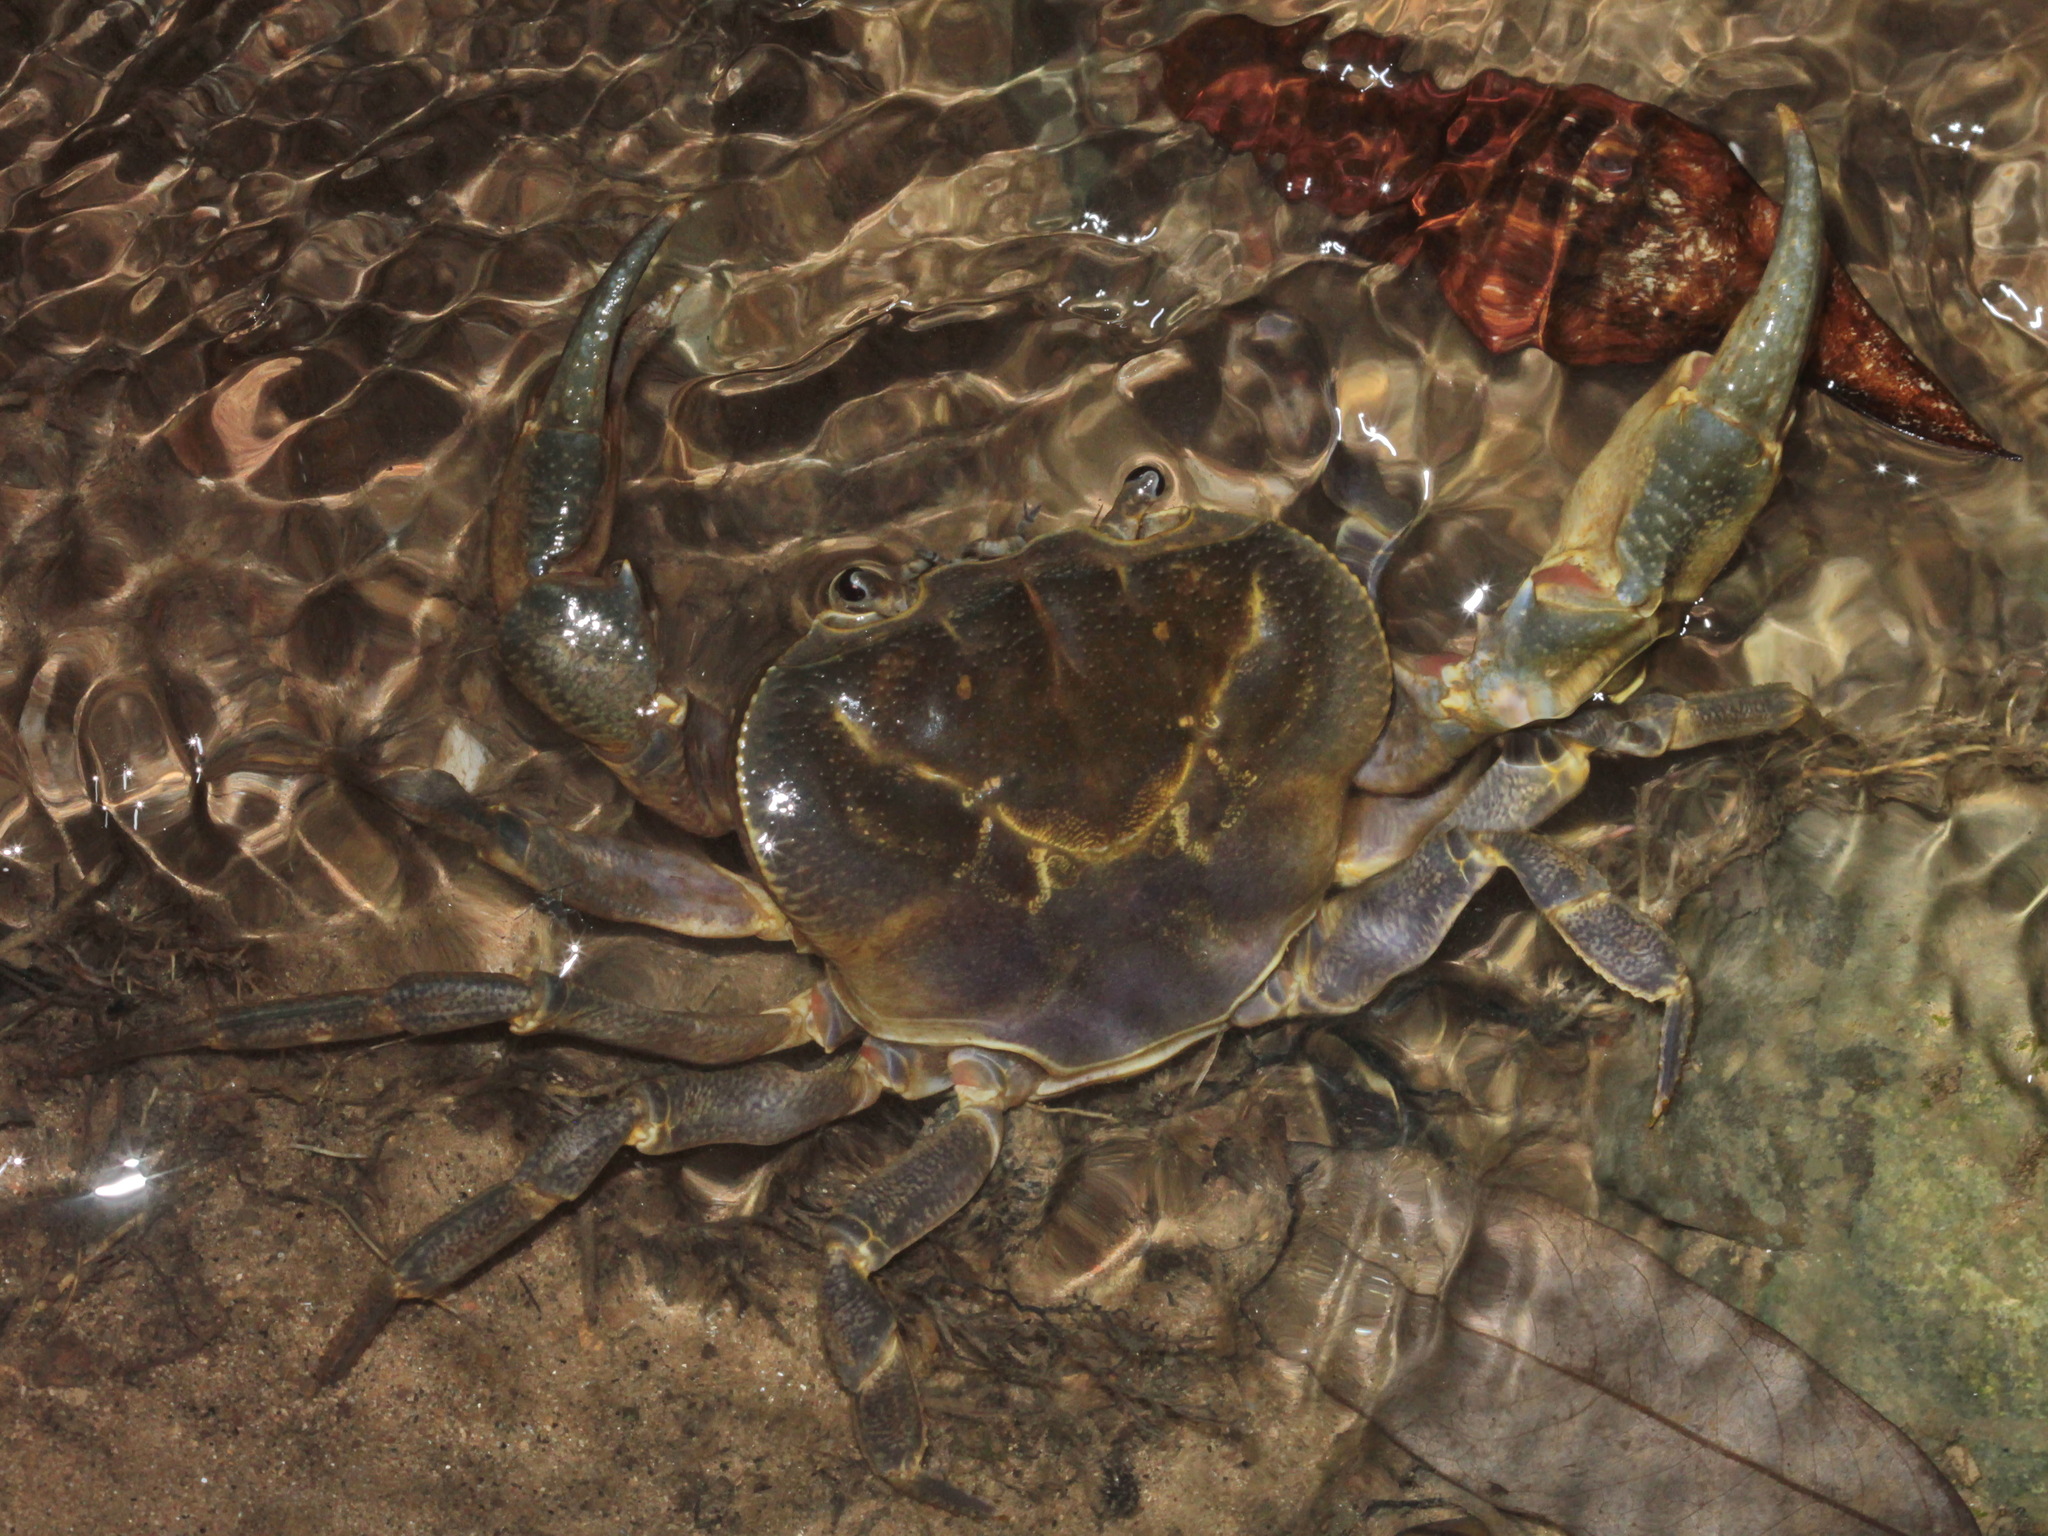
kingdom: Animalia
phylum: Arthropoda
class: Malacostraca
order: Decapoda
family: Potamidae
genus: Demanietta
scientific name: Demanietta suanphung
